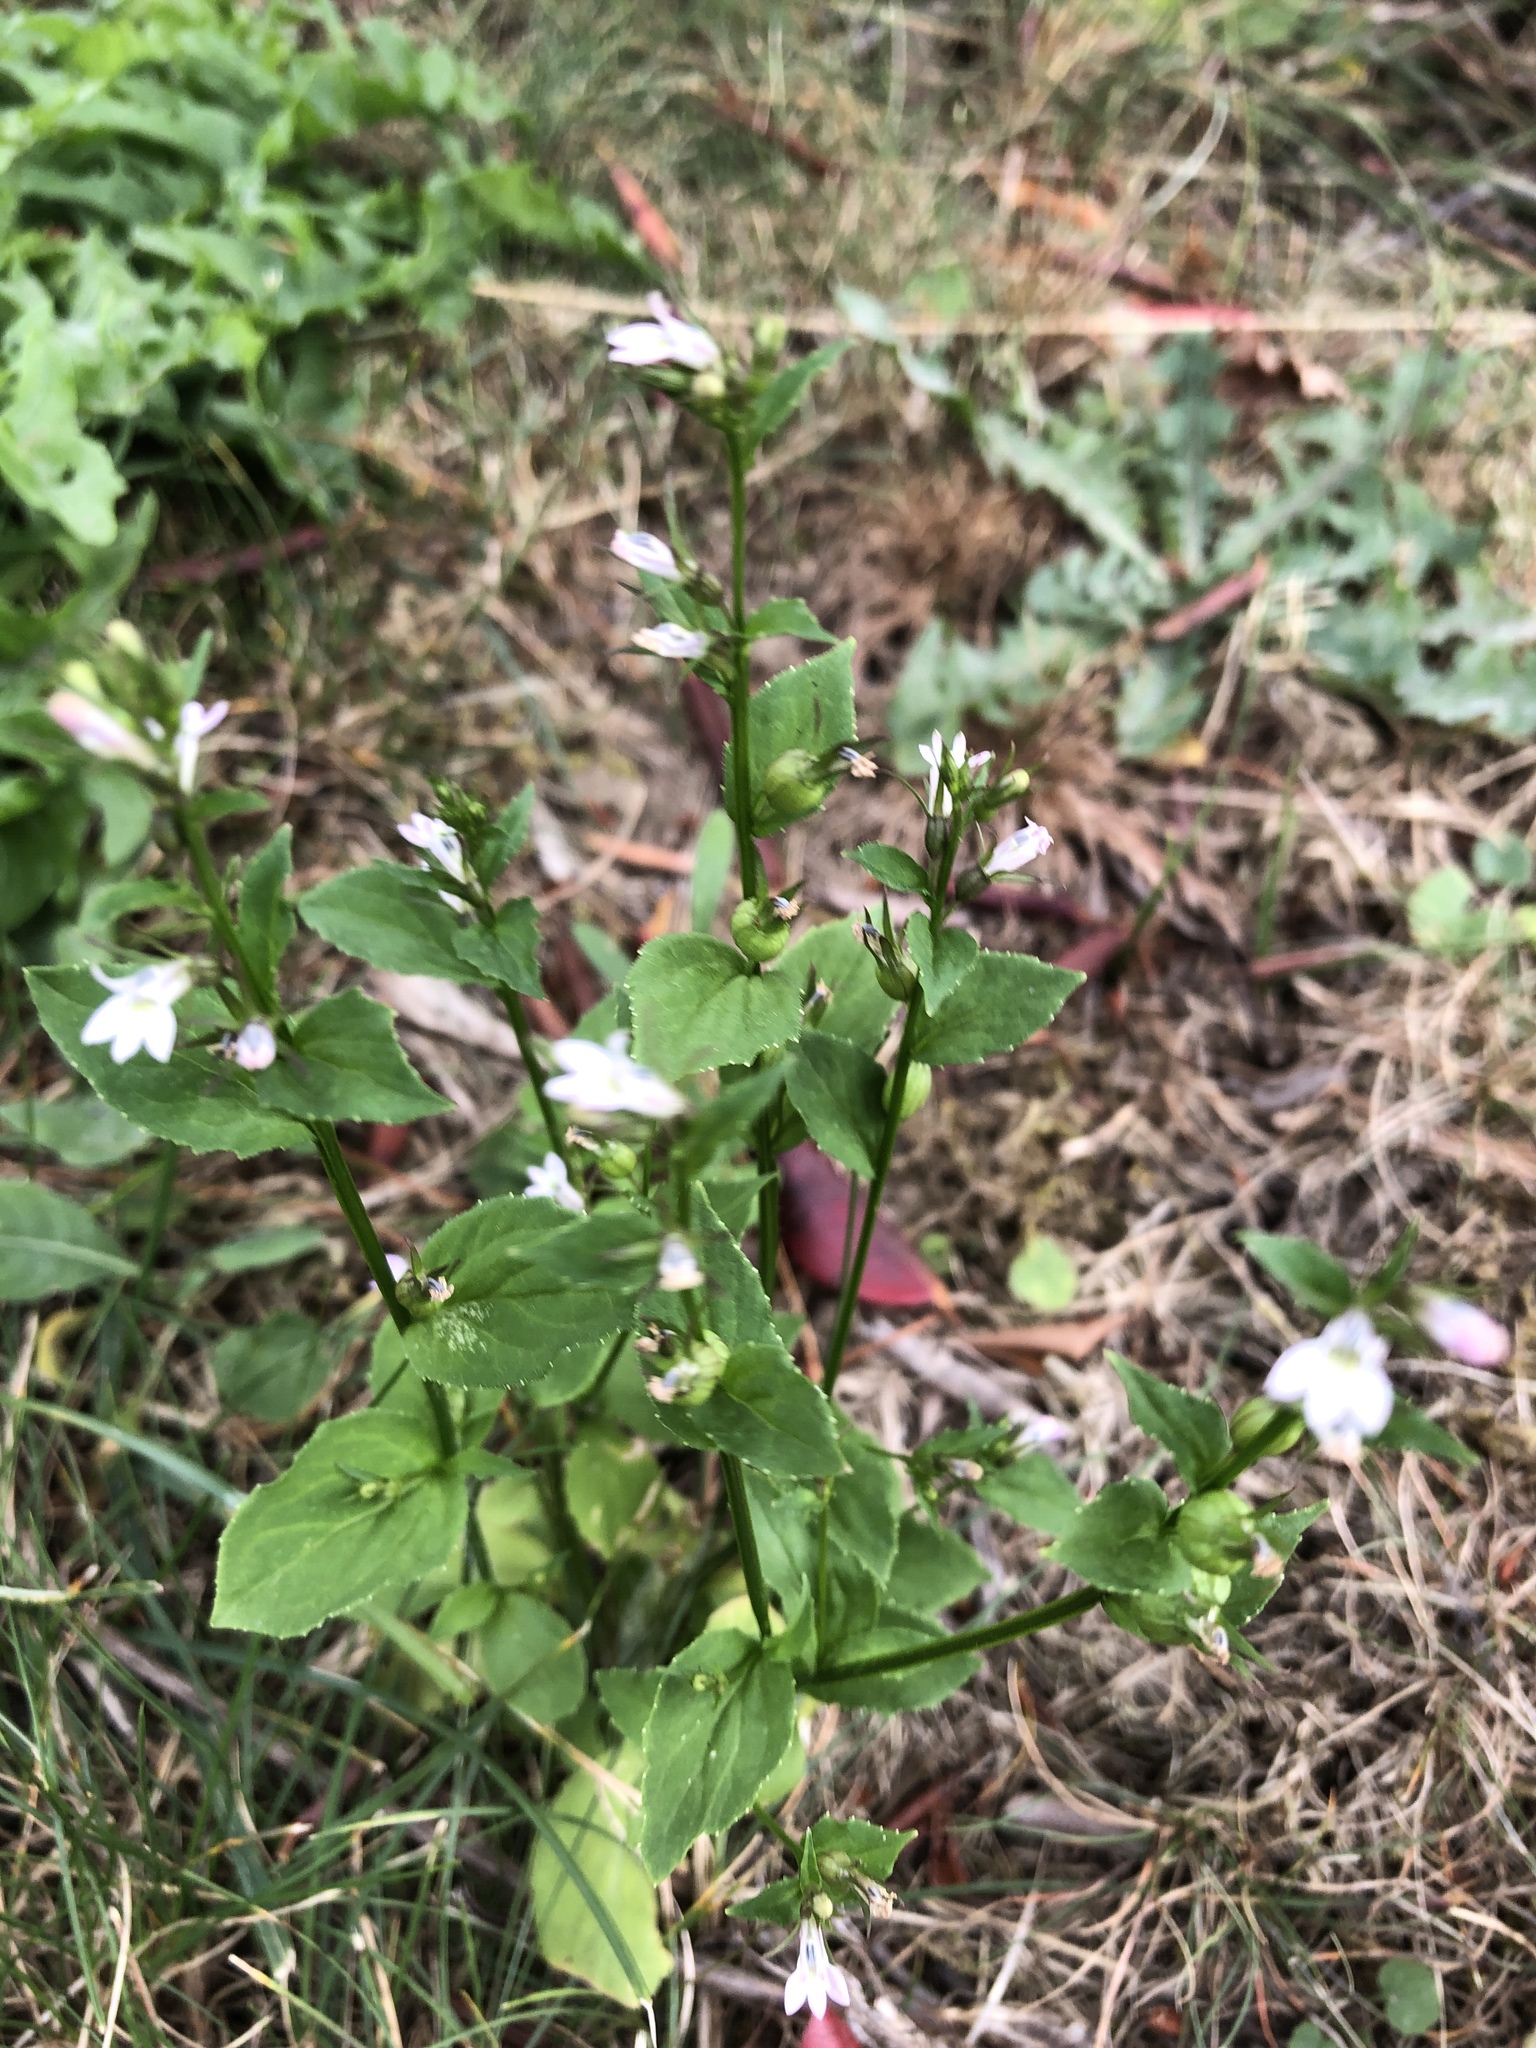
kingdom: Plantae
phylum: Tracheophyta
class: Magnoliopsida
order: Asterales
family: Campanulaceae
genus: Lobelia
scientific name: Lobelia inflata
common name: Indian tobacco
